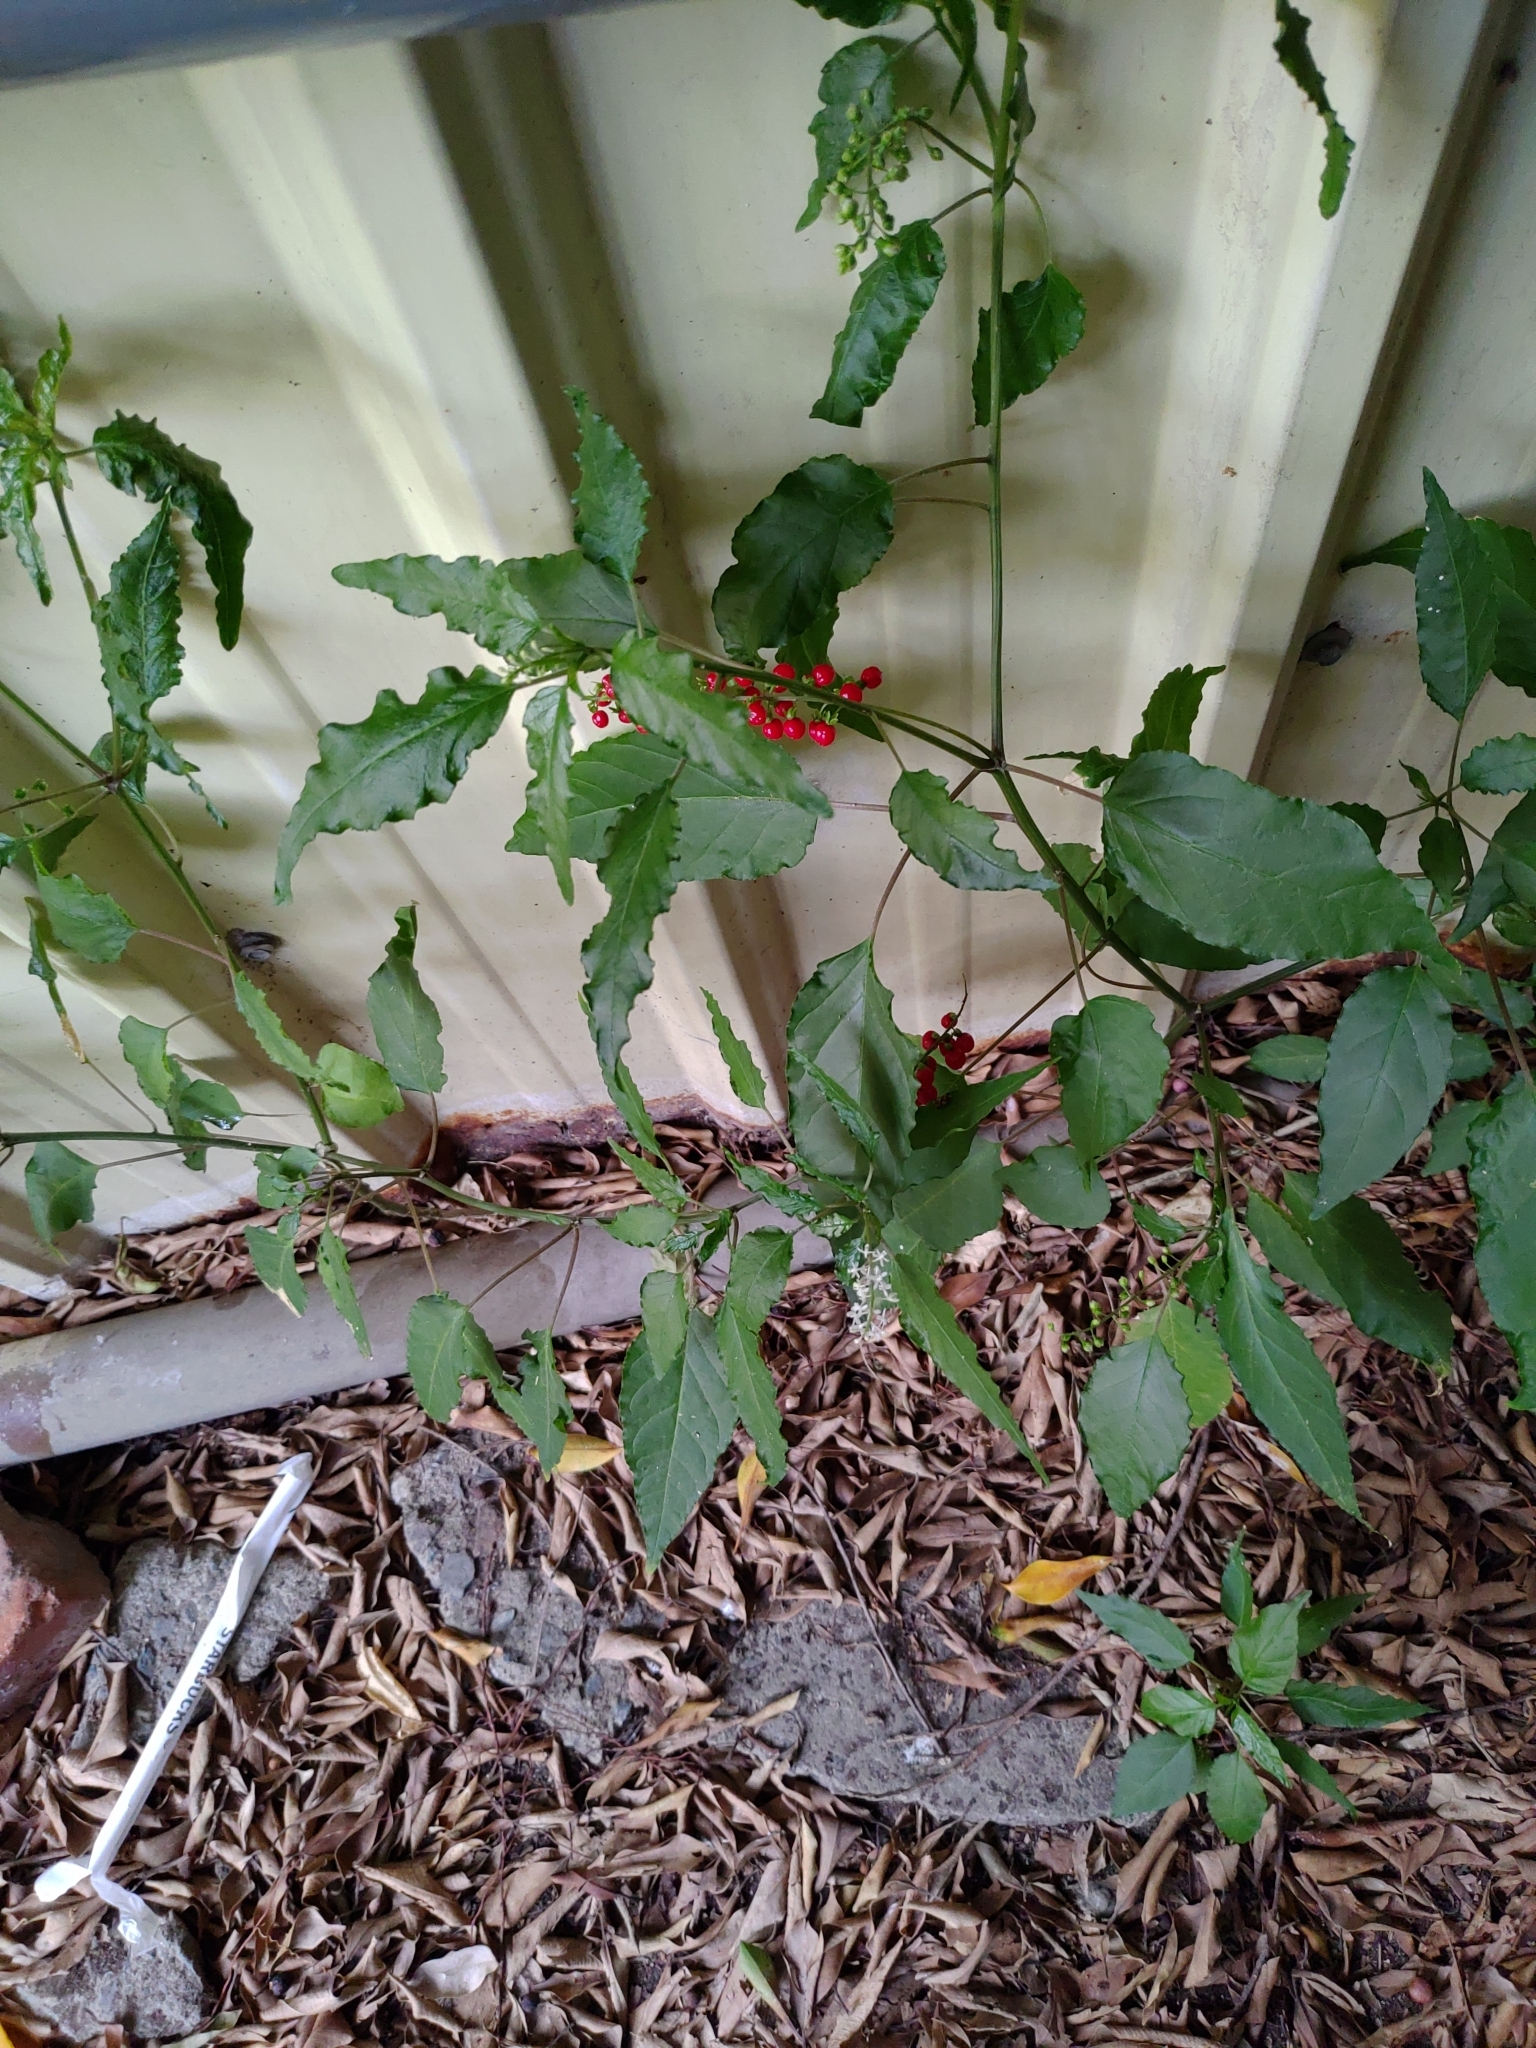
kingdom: Plantae
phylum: Tracheophyta
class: Magnoliopsida
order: Caryophyllales
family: Phytolaccaceae
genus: Rivina
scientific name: Rivina humilis
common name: Rougeplant
